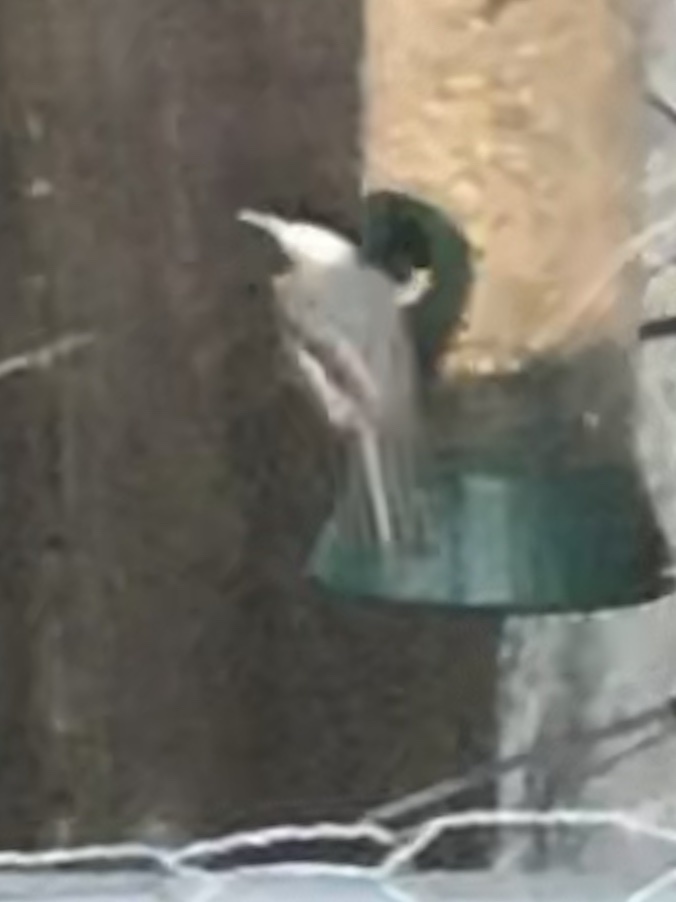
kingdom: Animalia
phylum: Chordata
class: Aves
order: Passeriformes
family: Paridae
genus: Poecile
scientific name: Poecile carolinensis
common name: Carolina chickadee
